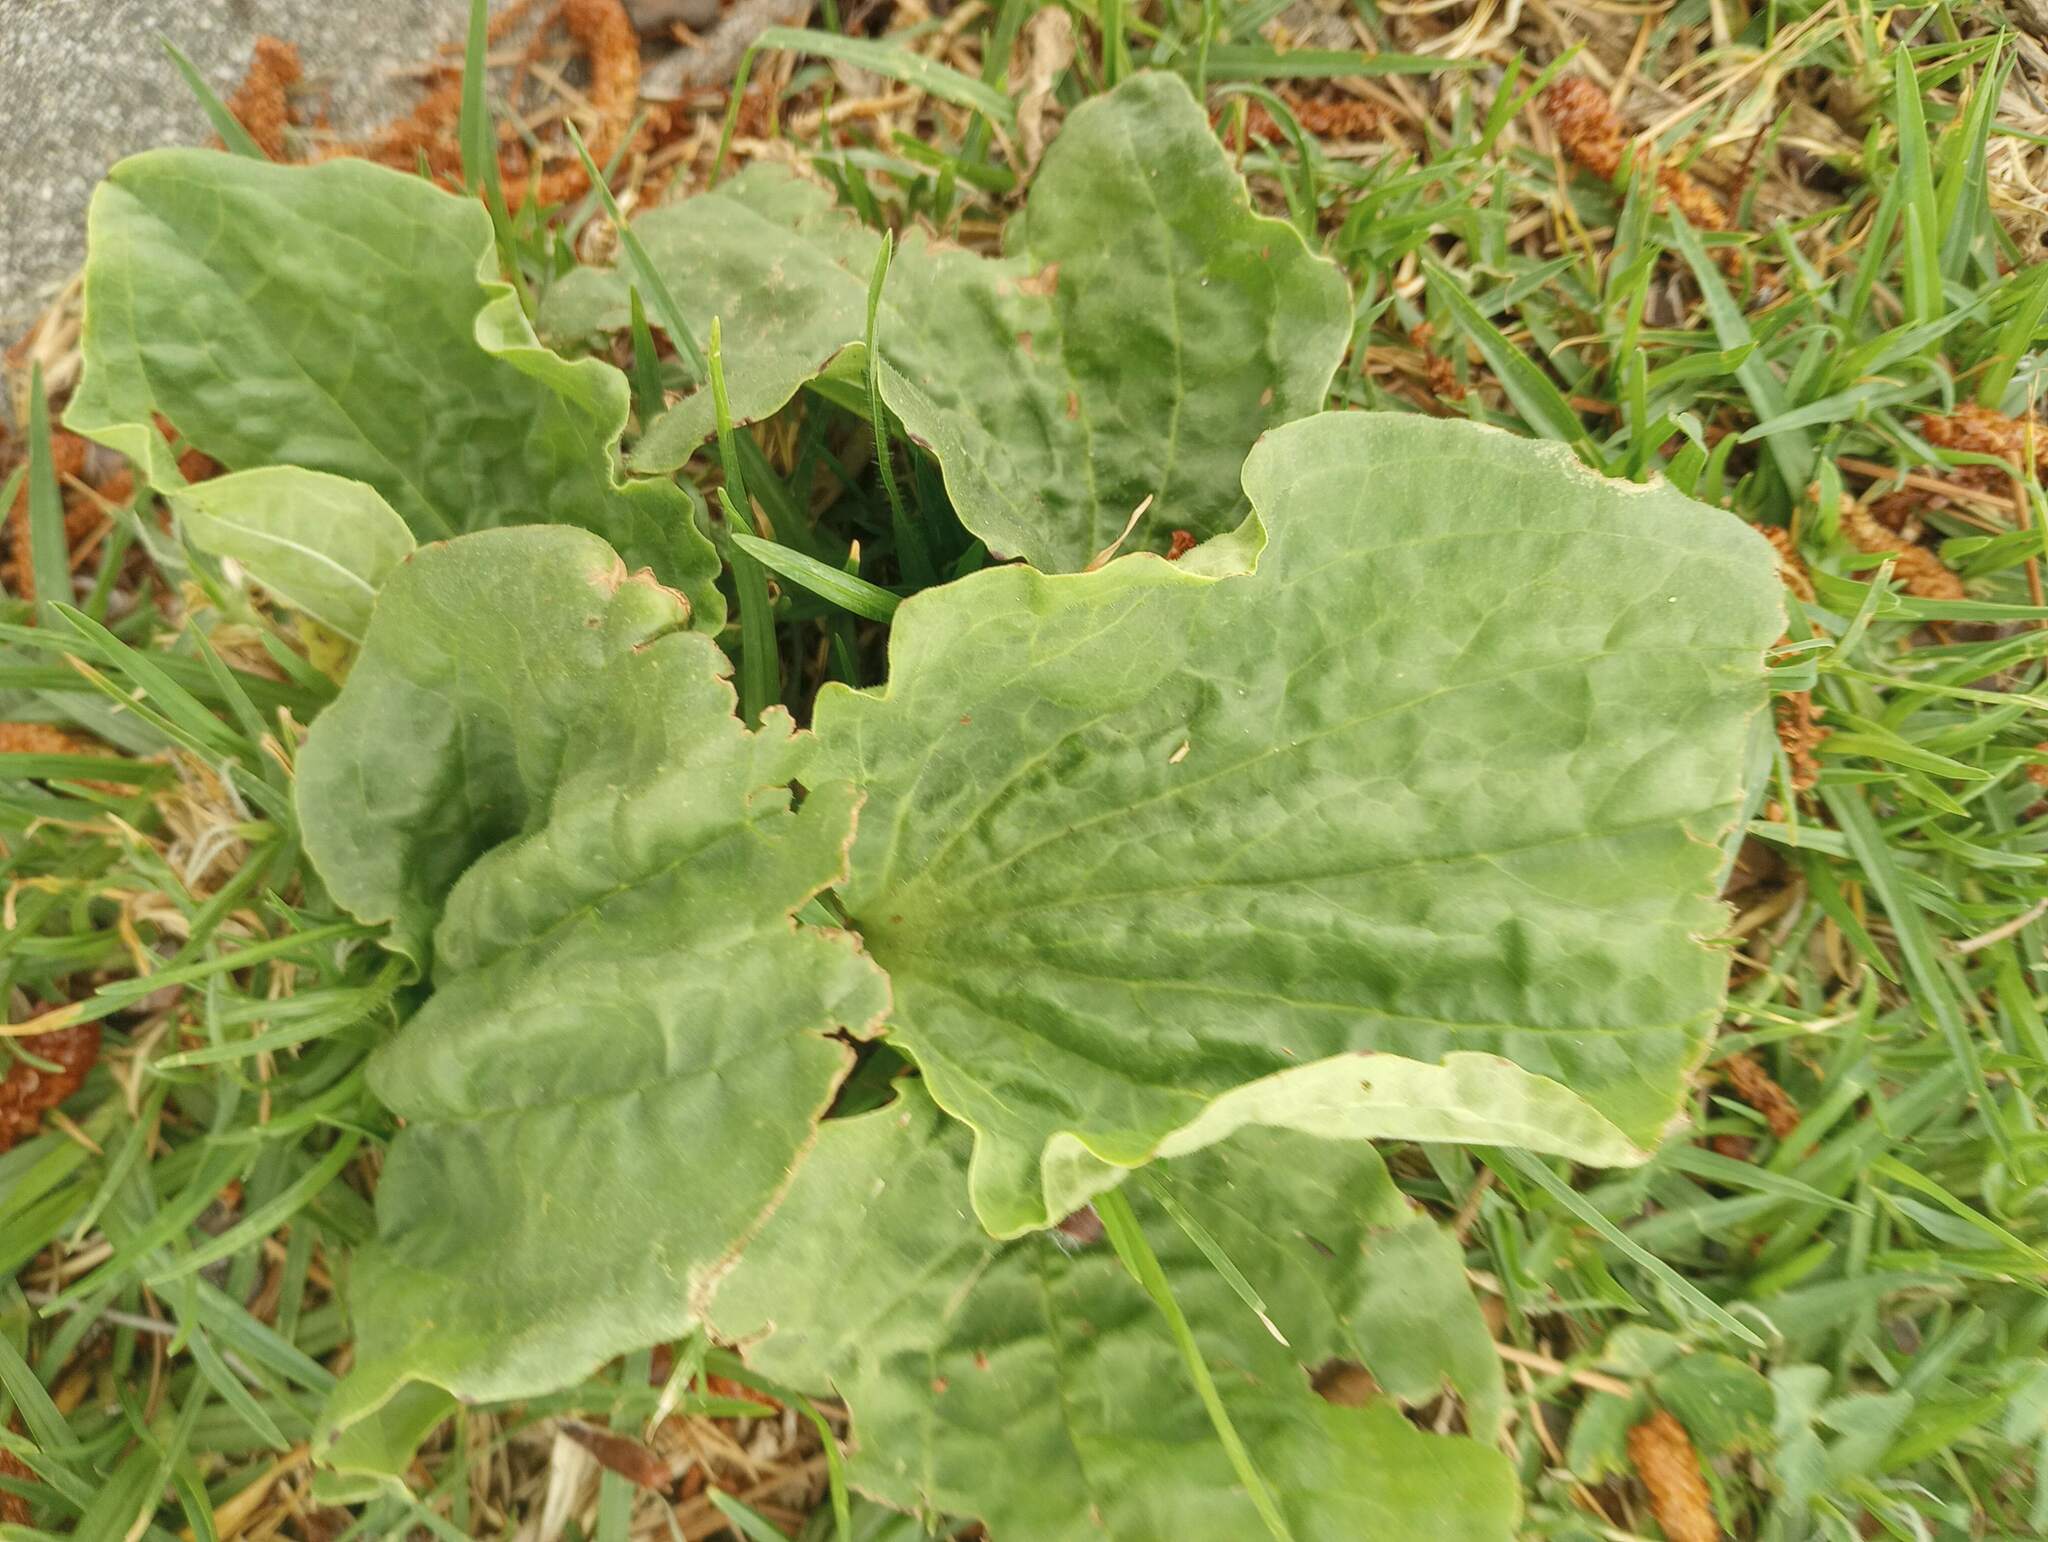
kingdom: Plantae
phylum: Tracheophyta
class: Magnoliopsida
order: Lamiales
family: Plantaginaceae
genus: Plantago
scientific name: Plantago major
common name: Common plantain
